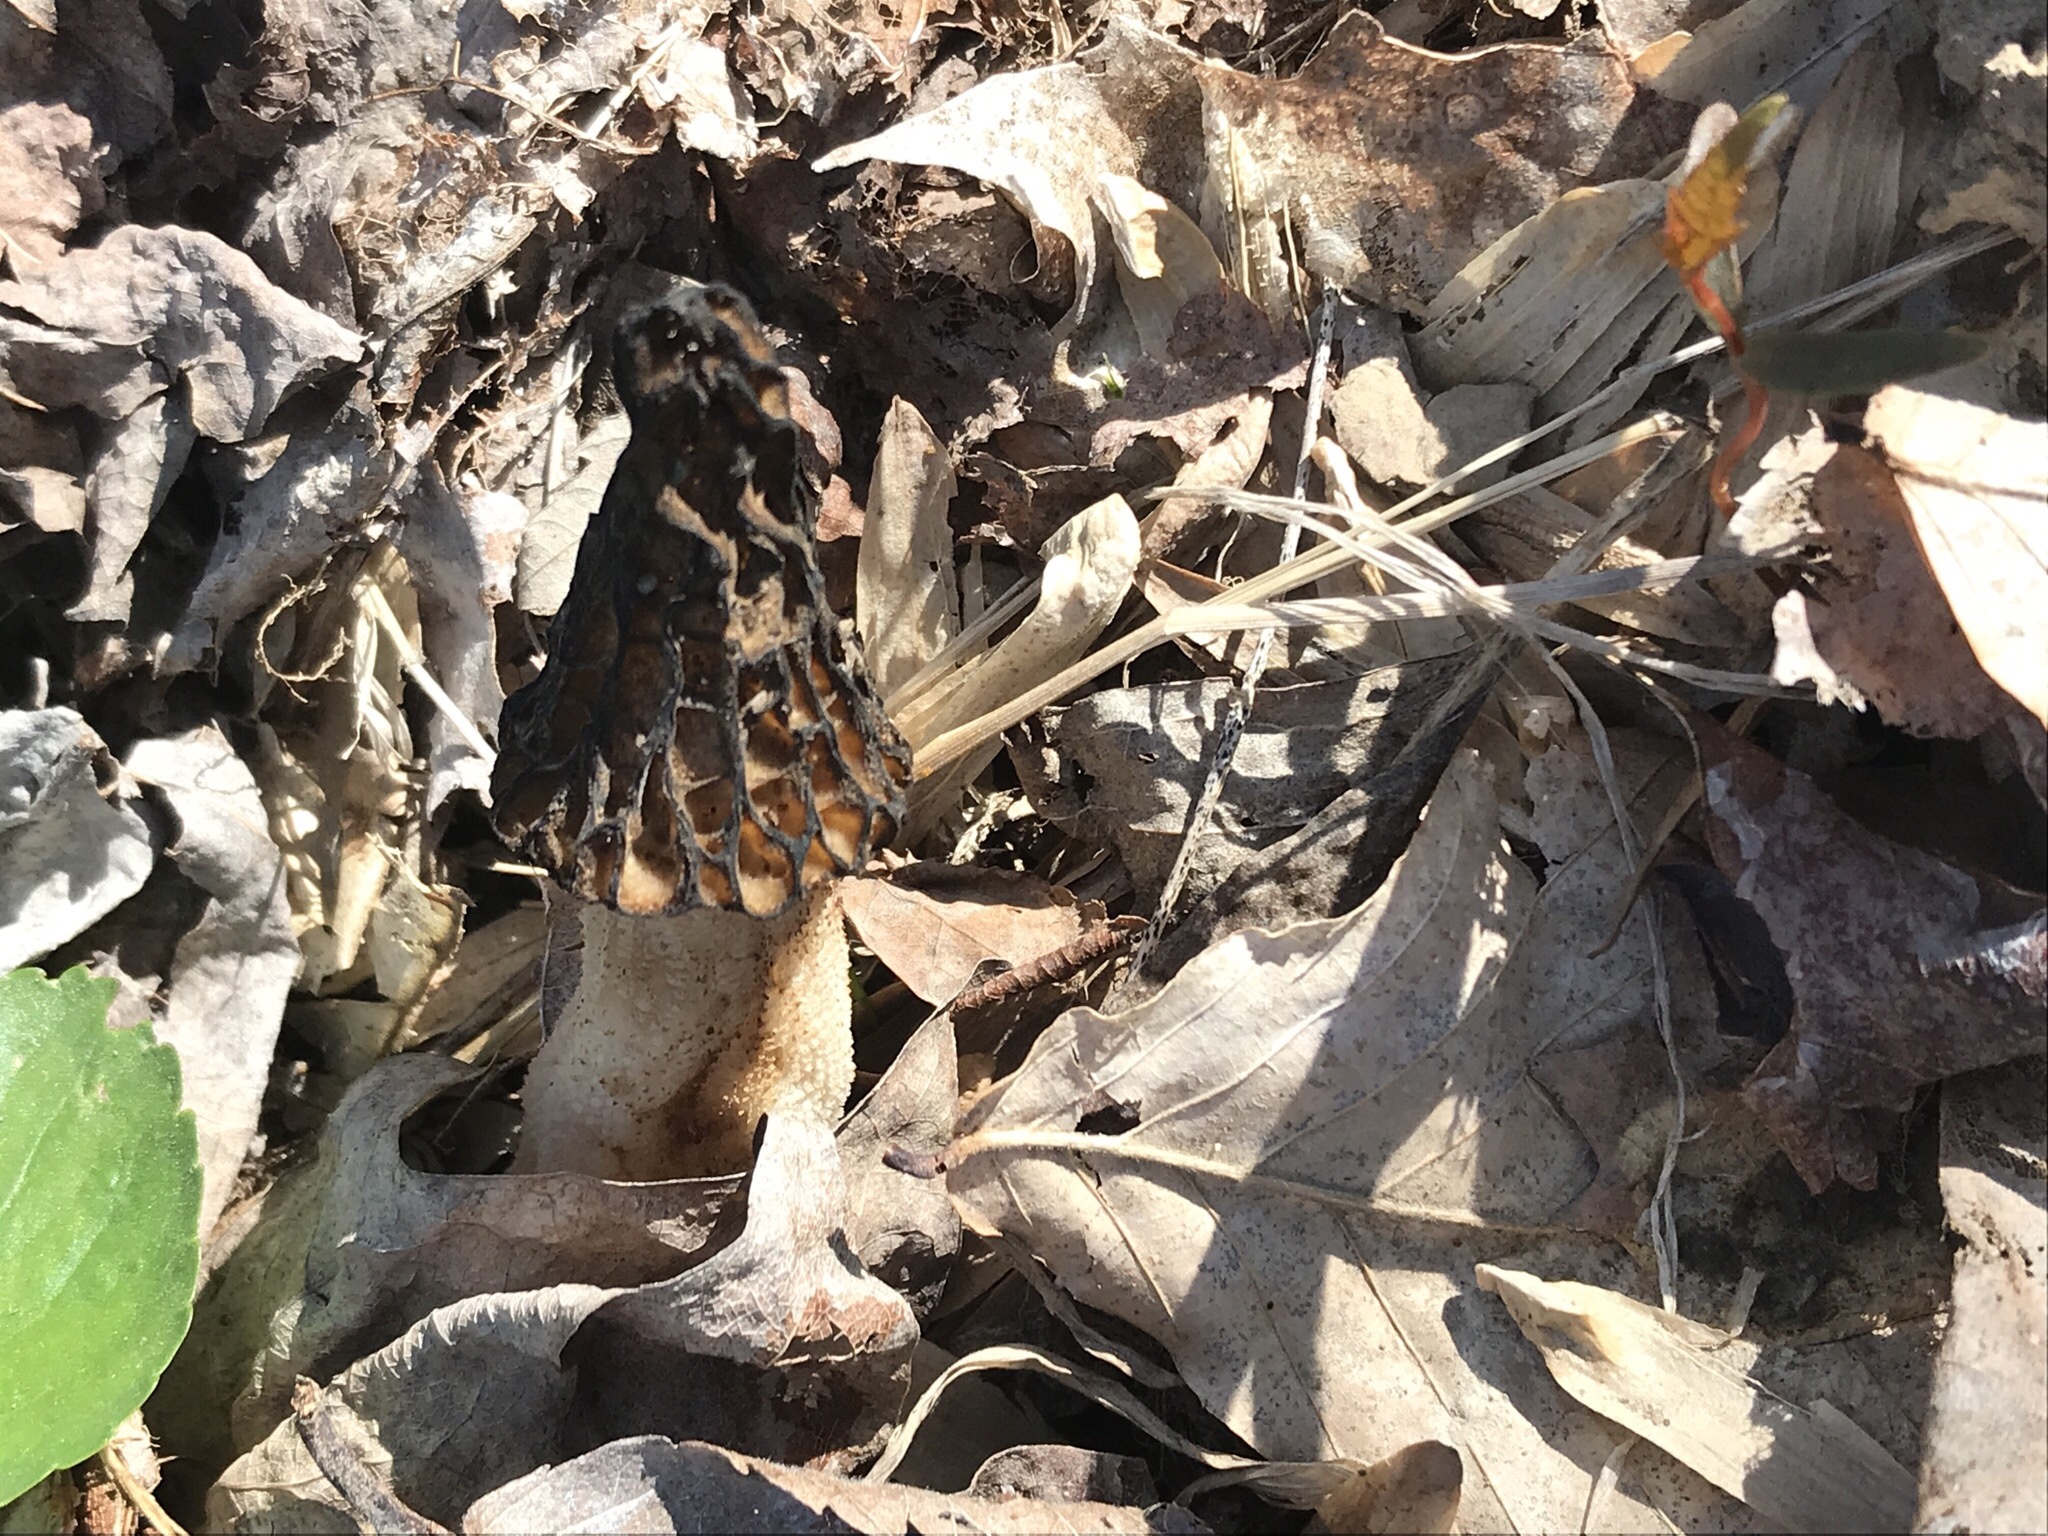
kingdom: Fungi
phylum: Ascomycota
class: Pezizomycetes
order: Pezizales
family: Morchellaceae
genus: Morchella
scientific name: Morchella angusticeps
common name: Black morel
